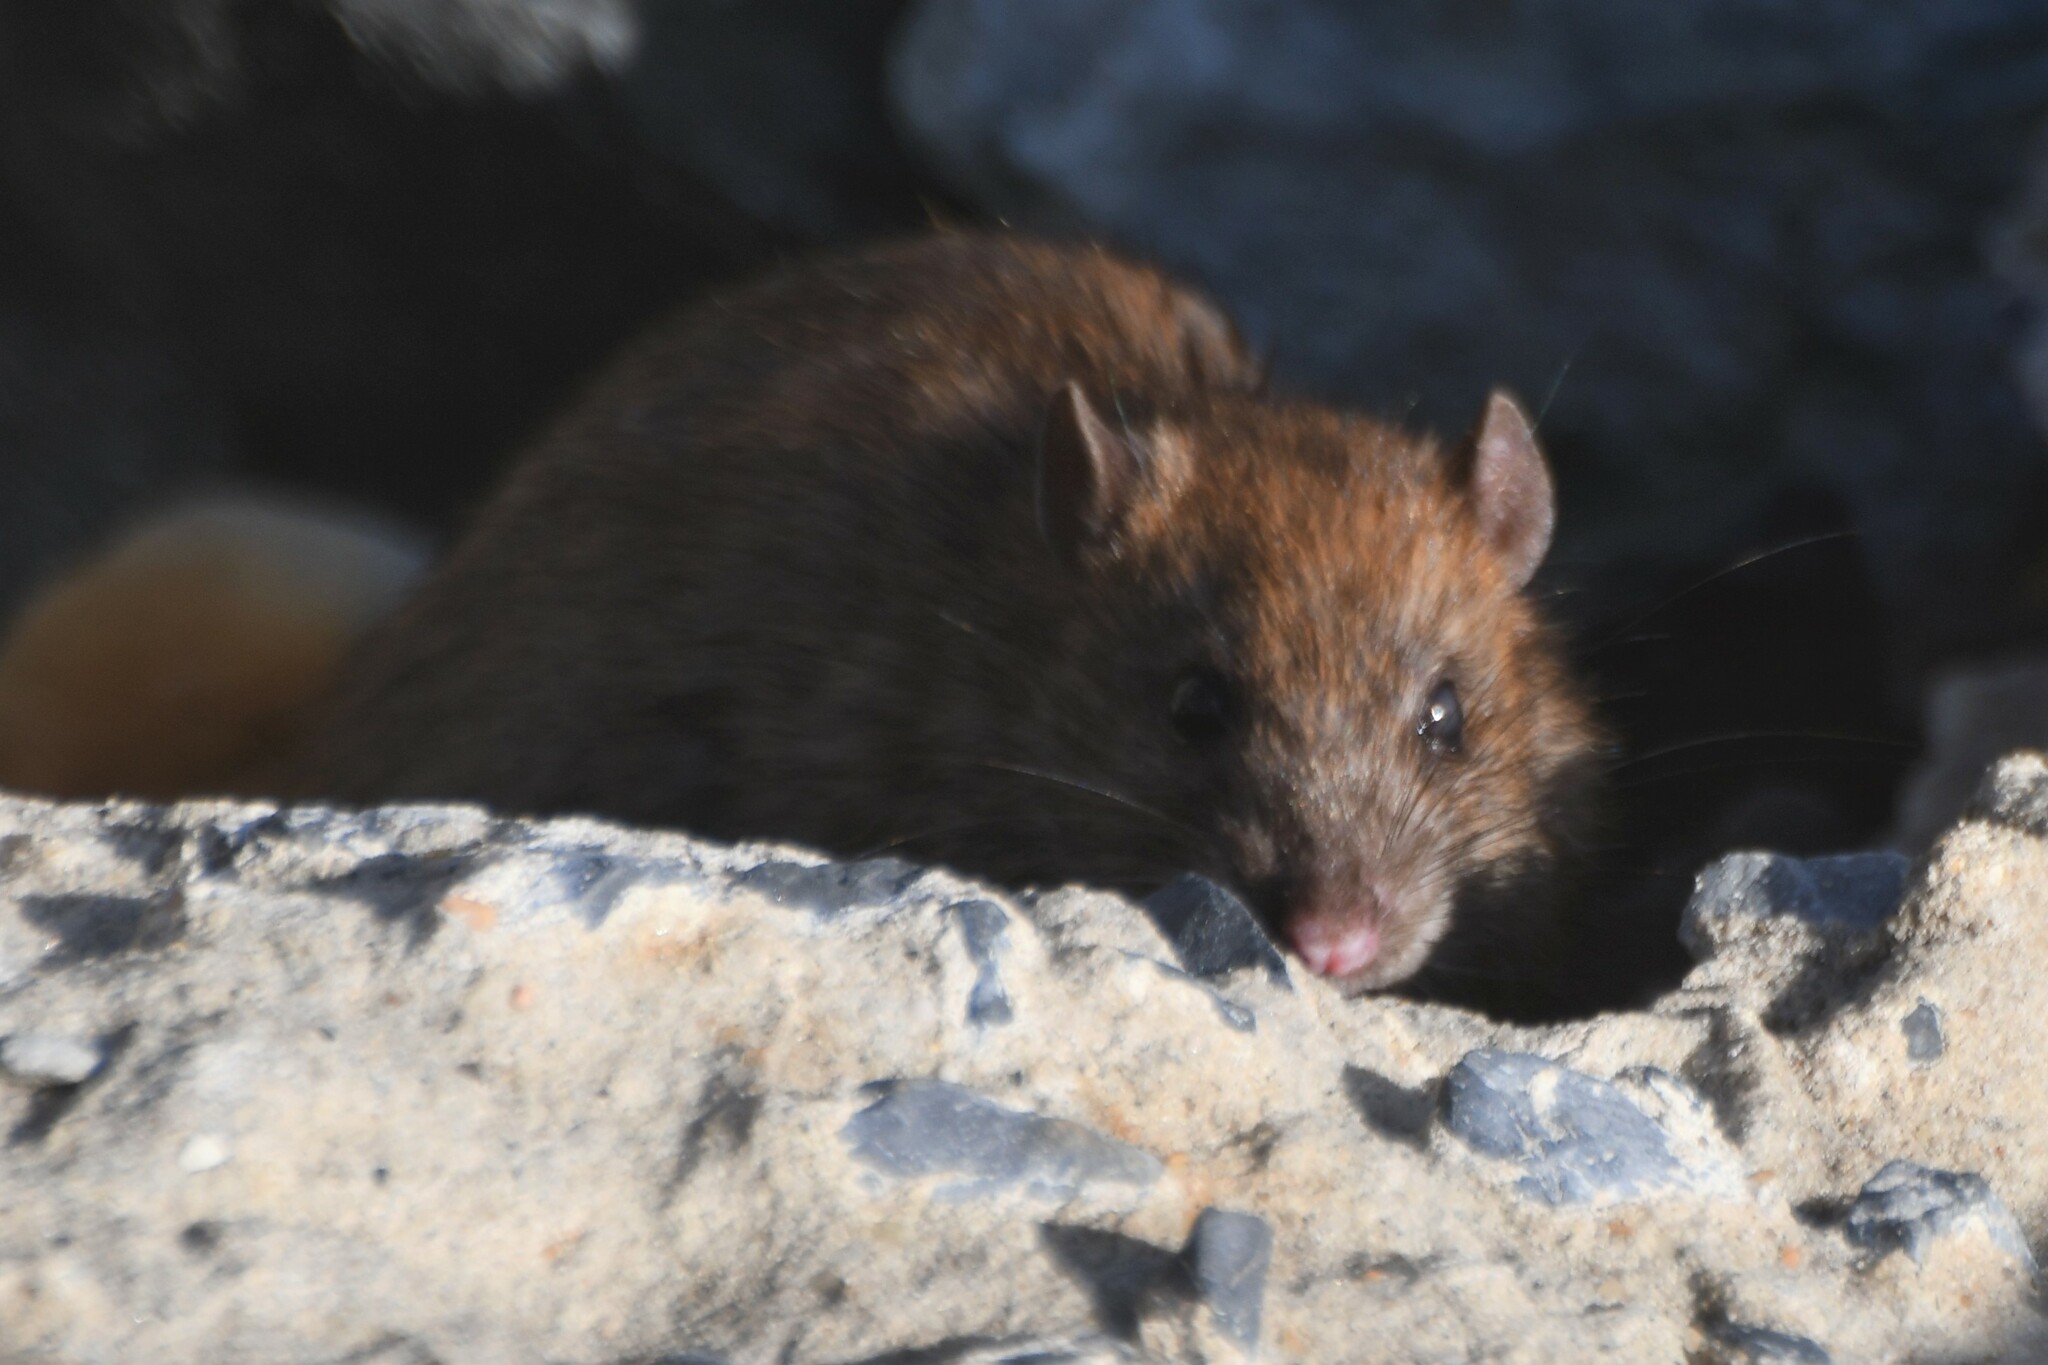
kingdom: Animalia
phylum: Chordata
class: Mammalia
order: Rodentia
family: Muridae
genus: Rattus
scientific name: Rattus norvegicus
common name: Brown rat
